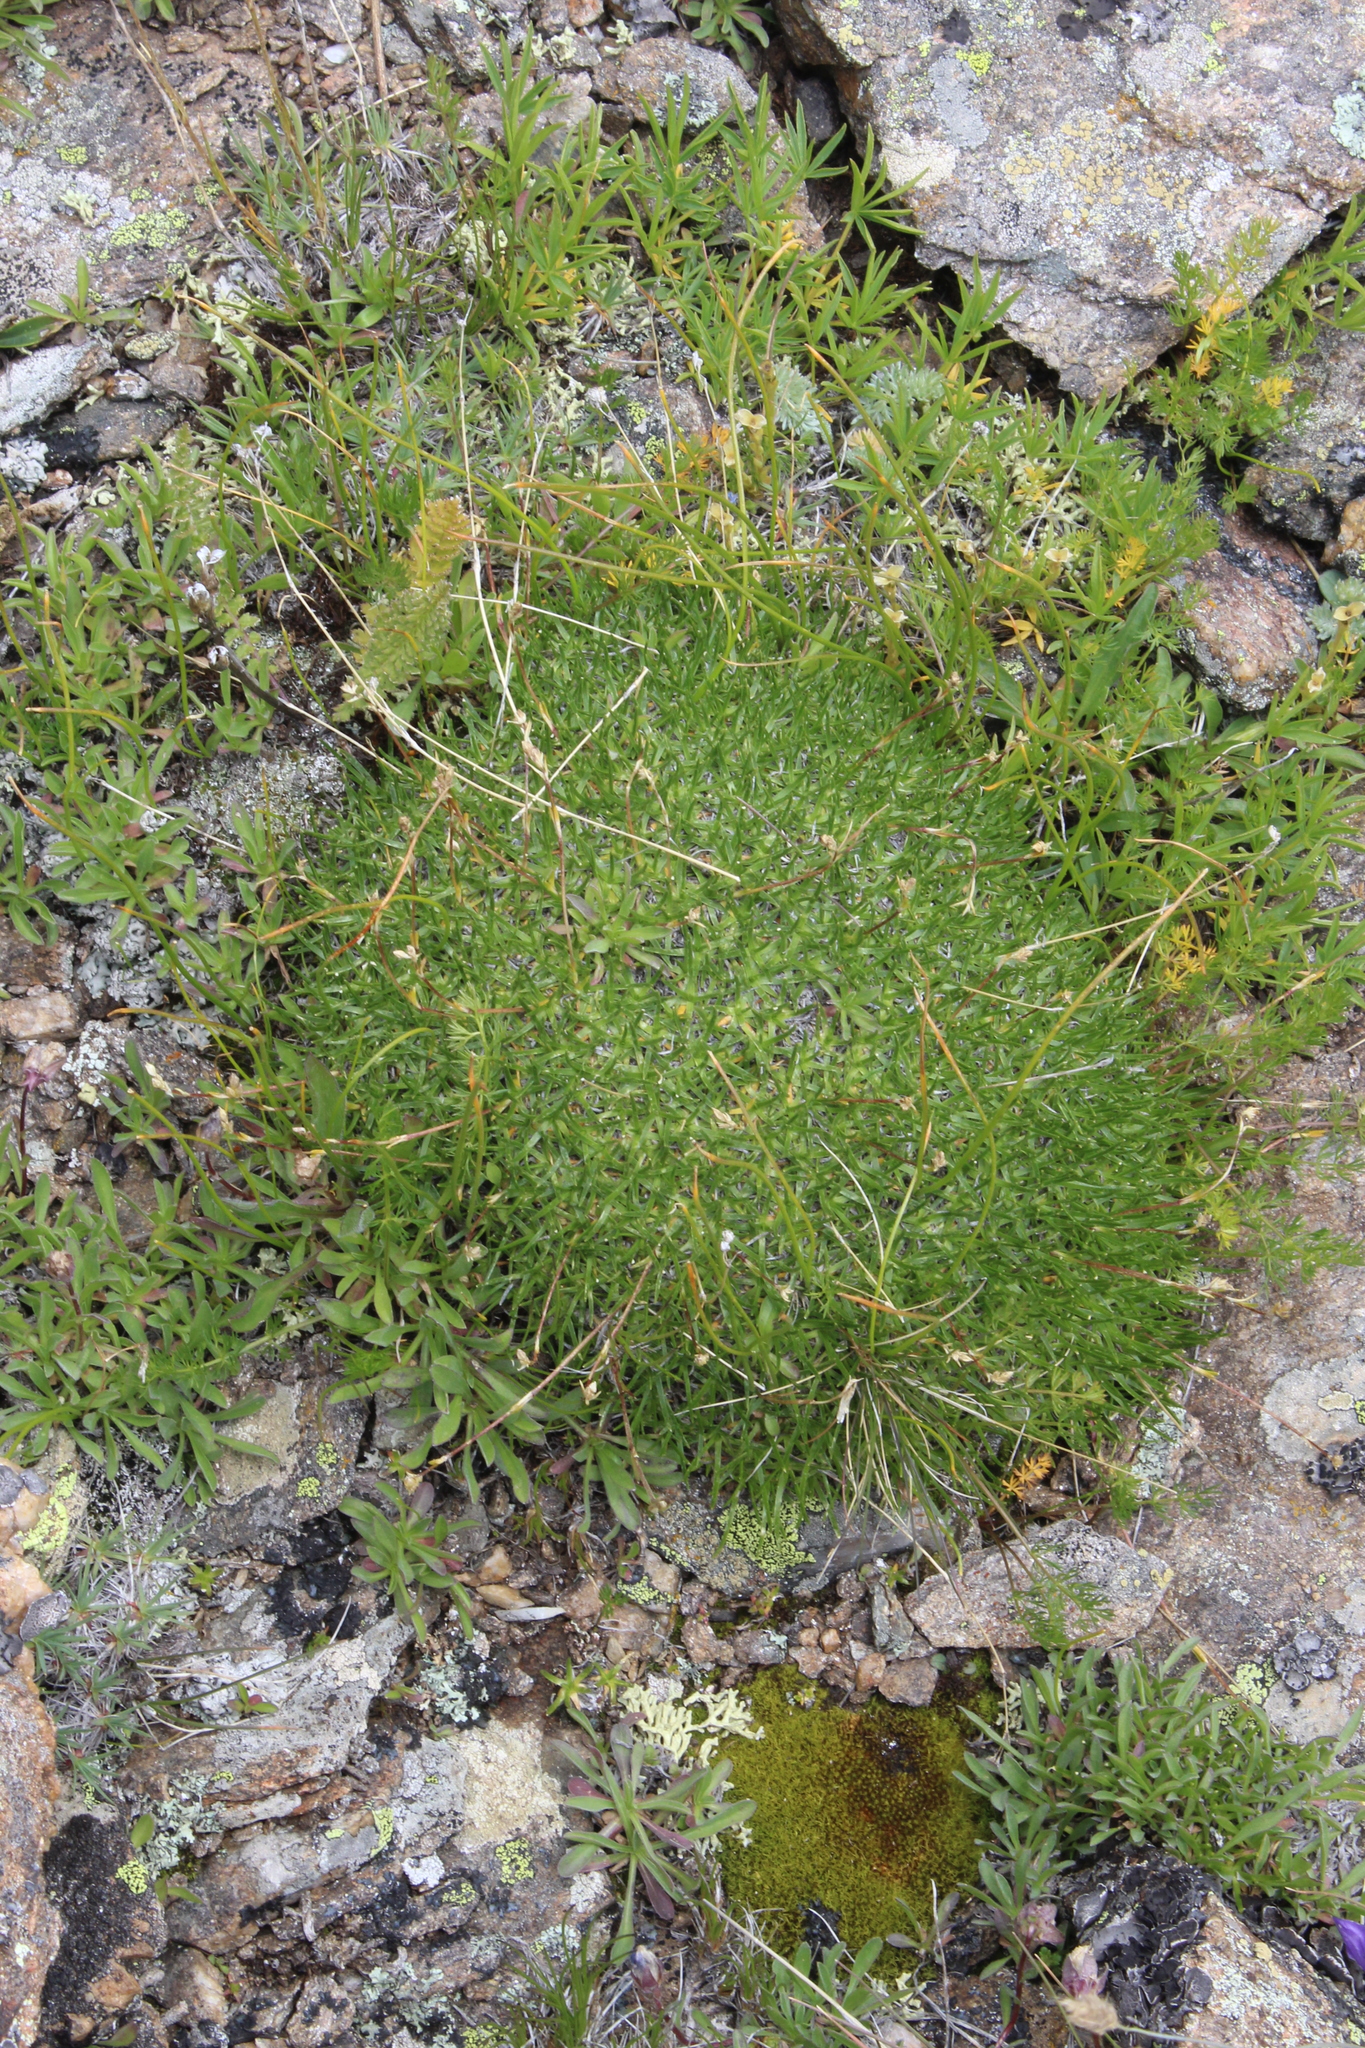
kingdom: Plantae
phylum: Tracheophyta
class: Magnoliopsida
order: Caryophyllales
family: Caryophyllaceae
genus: Gypsophila
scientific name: Gypsophila tenuifolia
